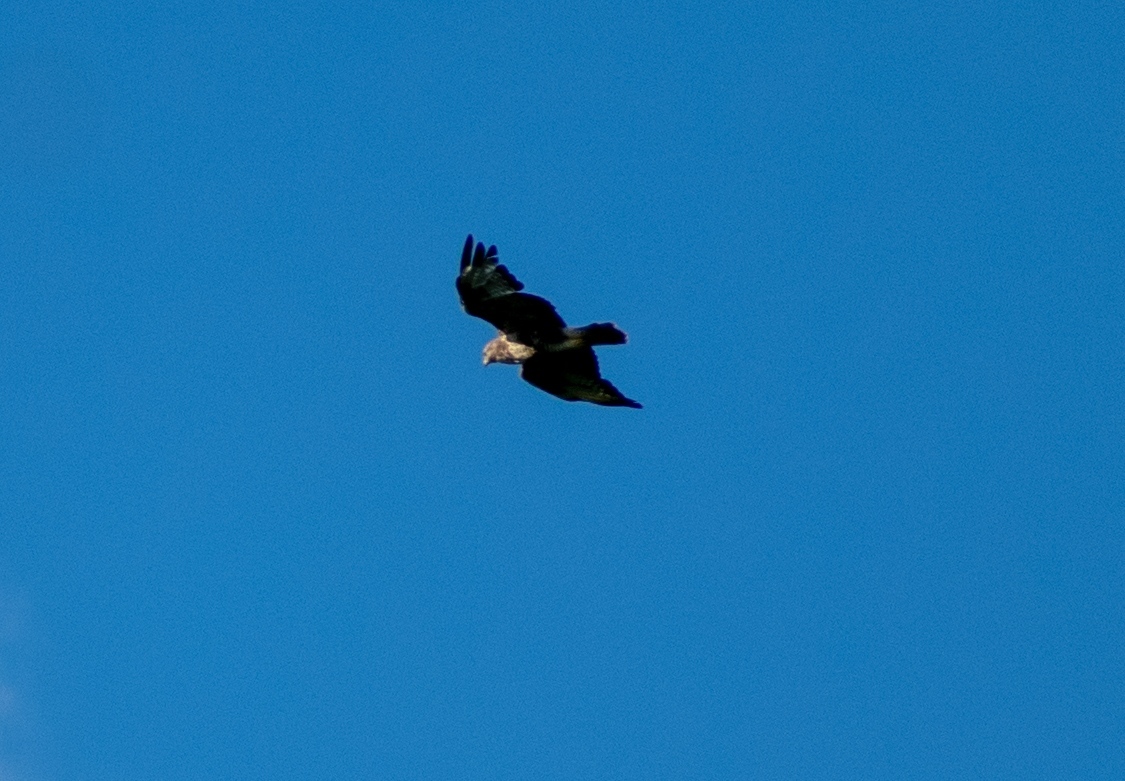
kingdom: Animalia
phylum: Chordata
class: Aves
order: Accipitriformes
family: Accipitridae
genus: Buteo
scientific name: Buteo buteo
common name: Common buzzard
